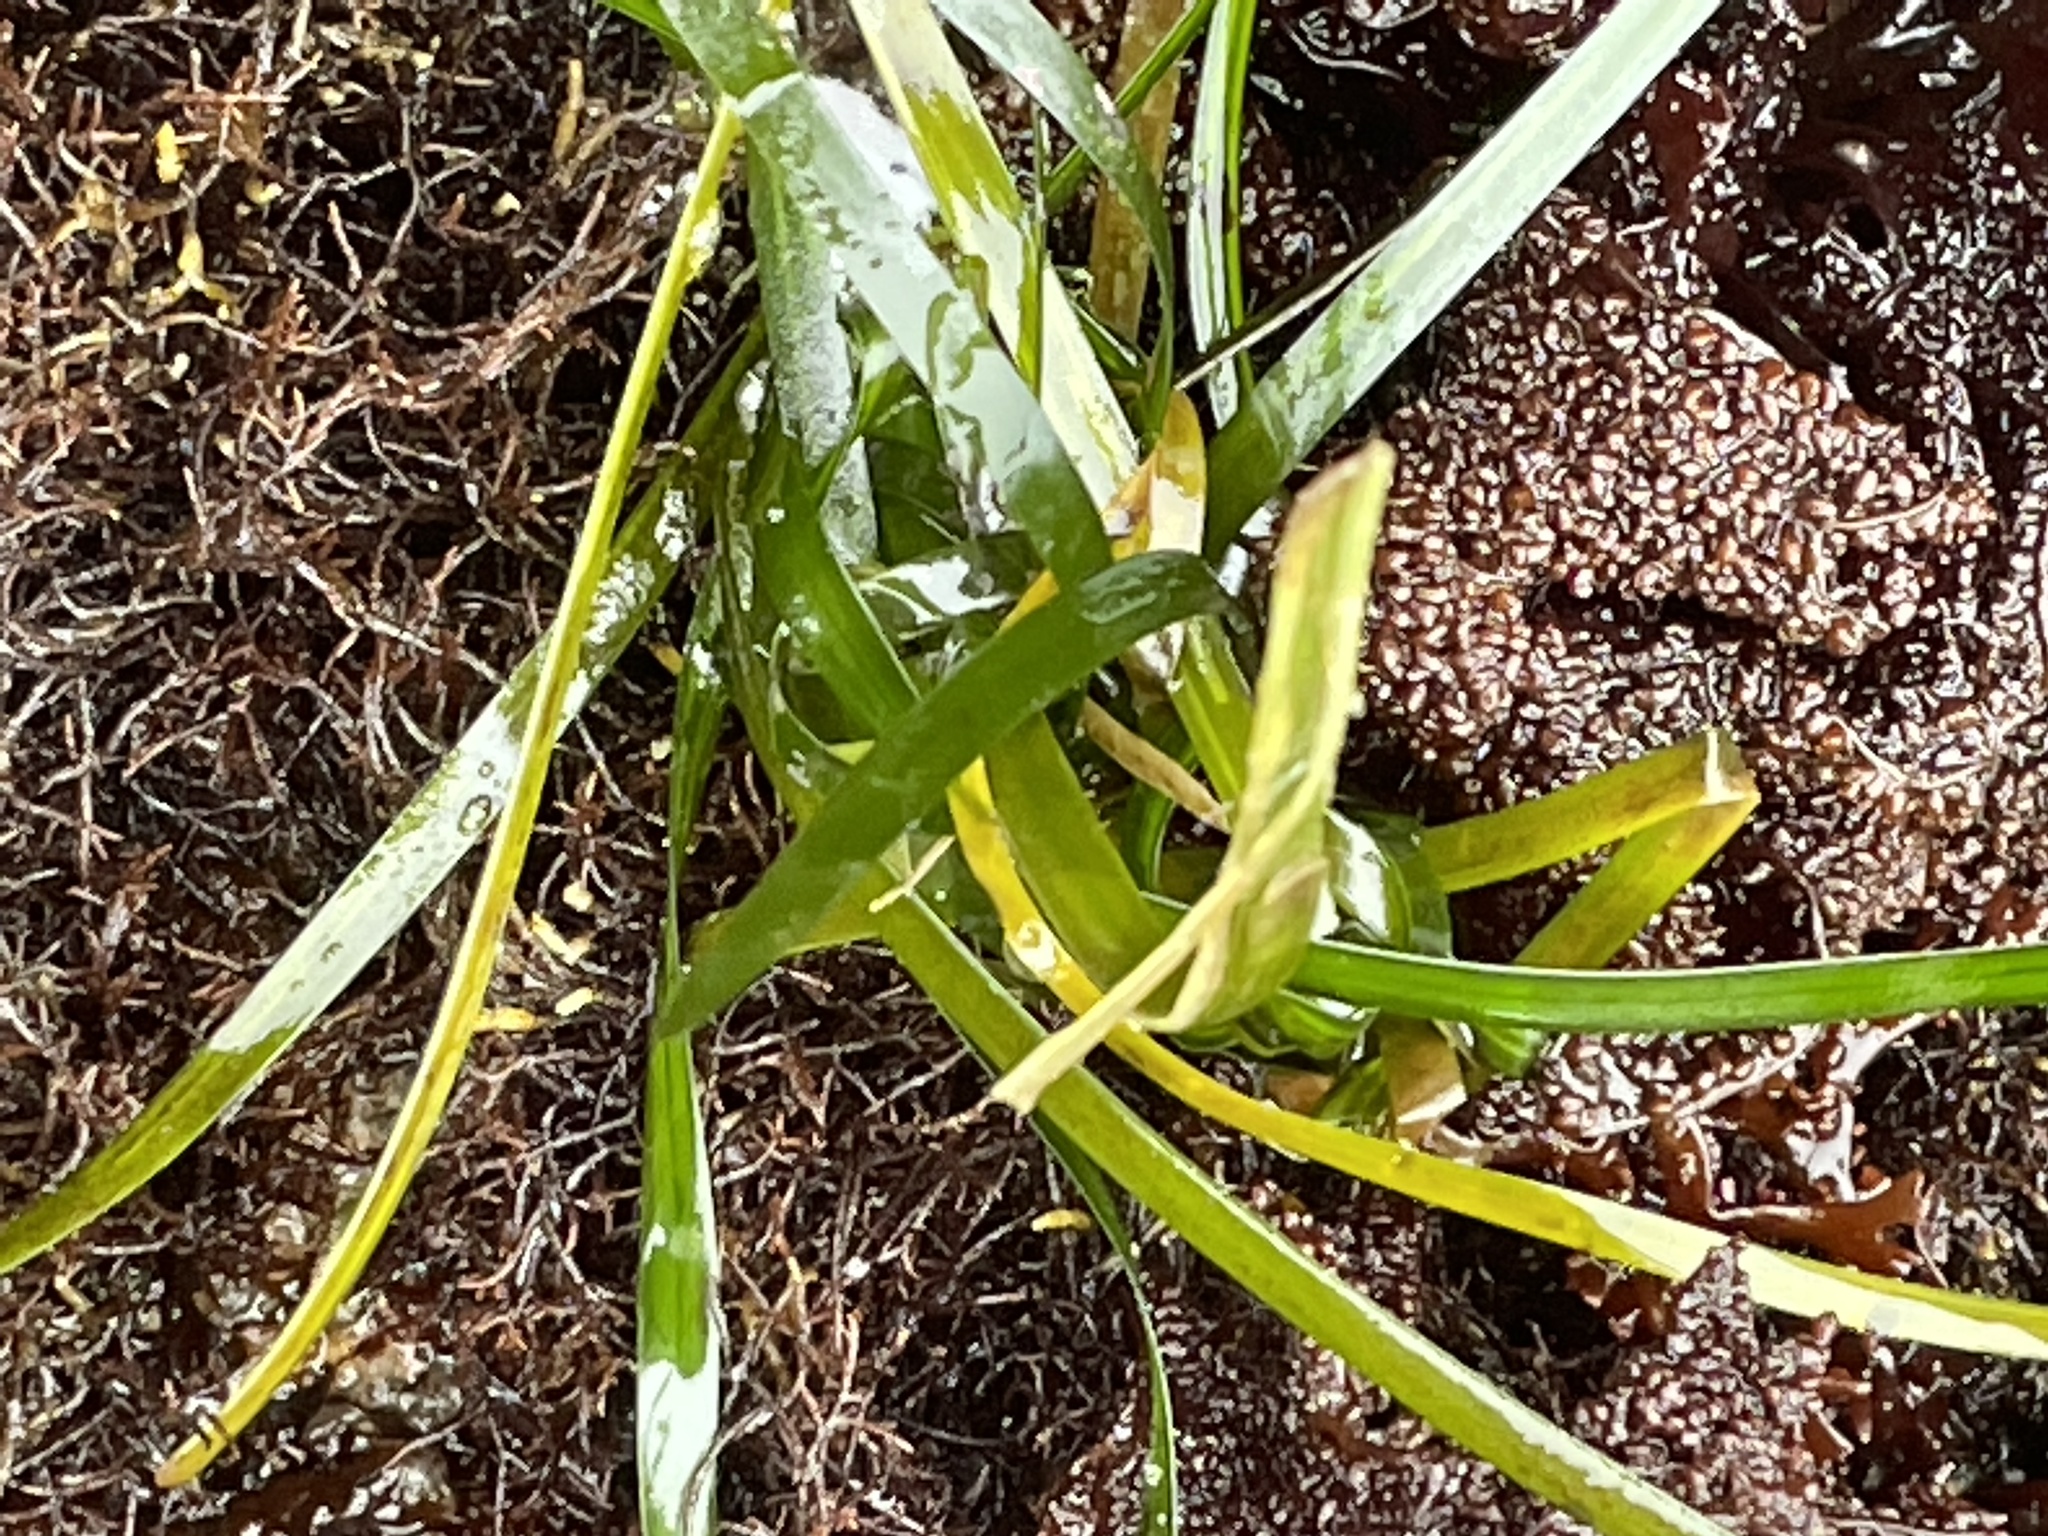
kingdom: Plantae
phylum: Tracheophyta
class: Liliopsida
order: Alismatales
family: Zosteraceae
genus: Phyllospadix
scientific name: Phyllospadix scouleri
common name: Species code: ps
